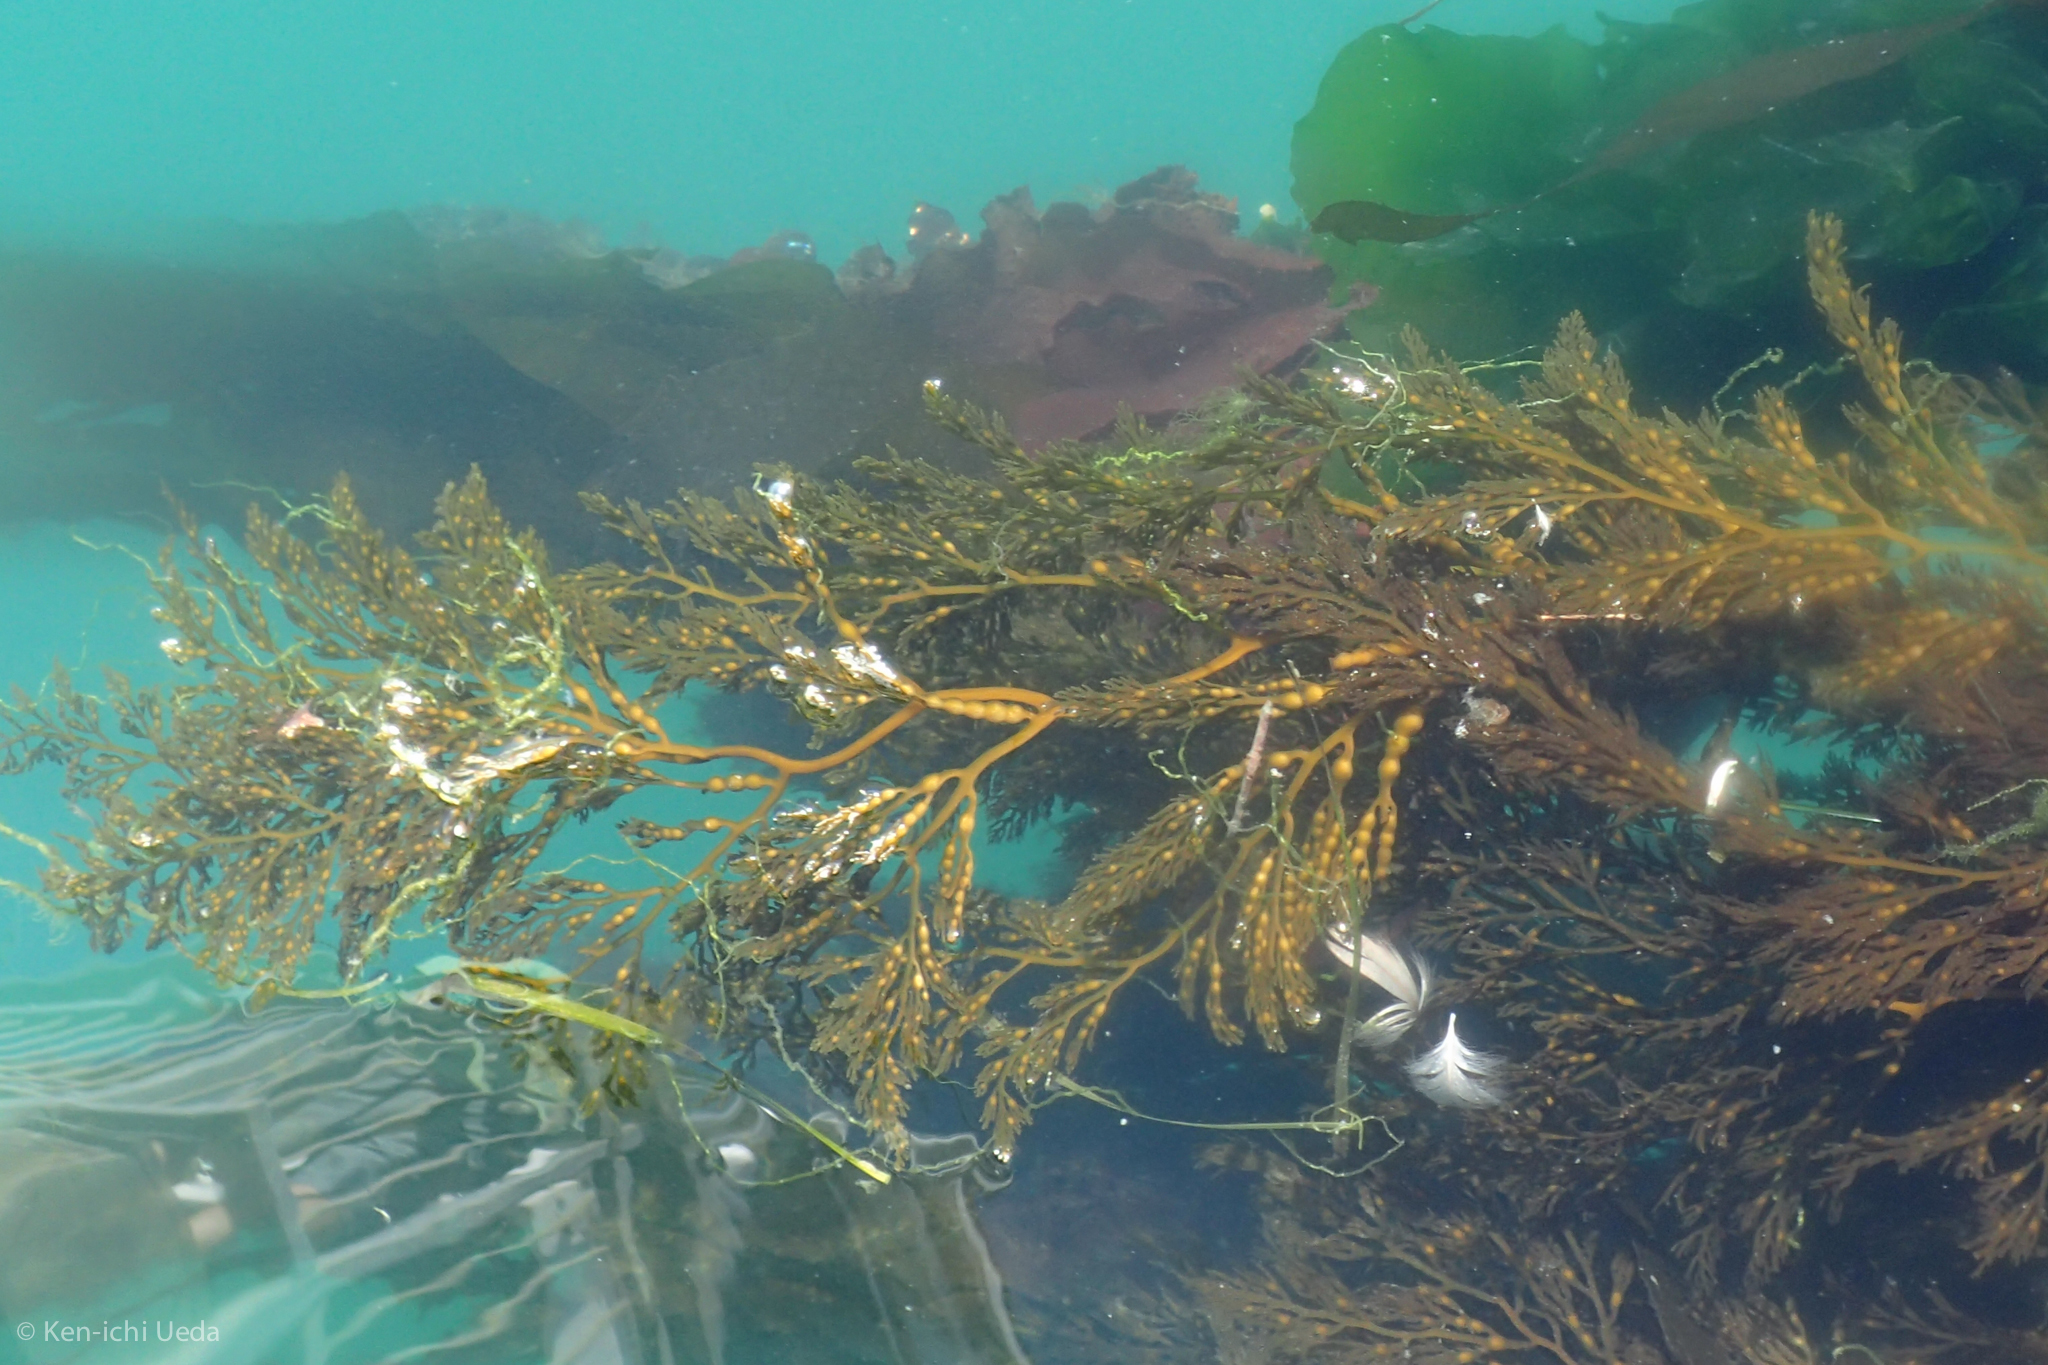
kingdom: Chromista
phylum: Ochrophyta
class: Phaeophyceae
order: Fucales
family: Sargassaceae
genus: Stephanocystis
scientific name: Stephanocystis
